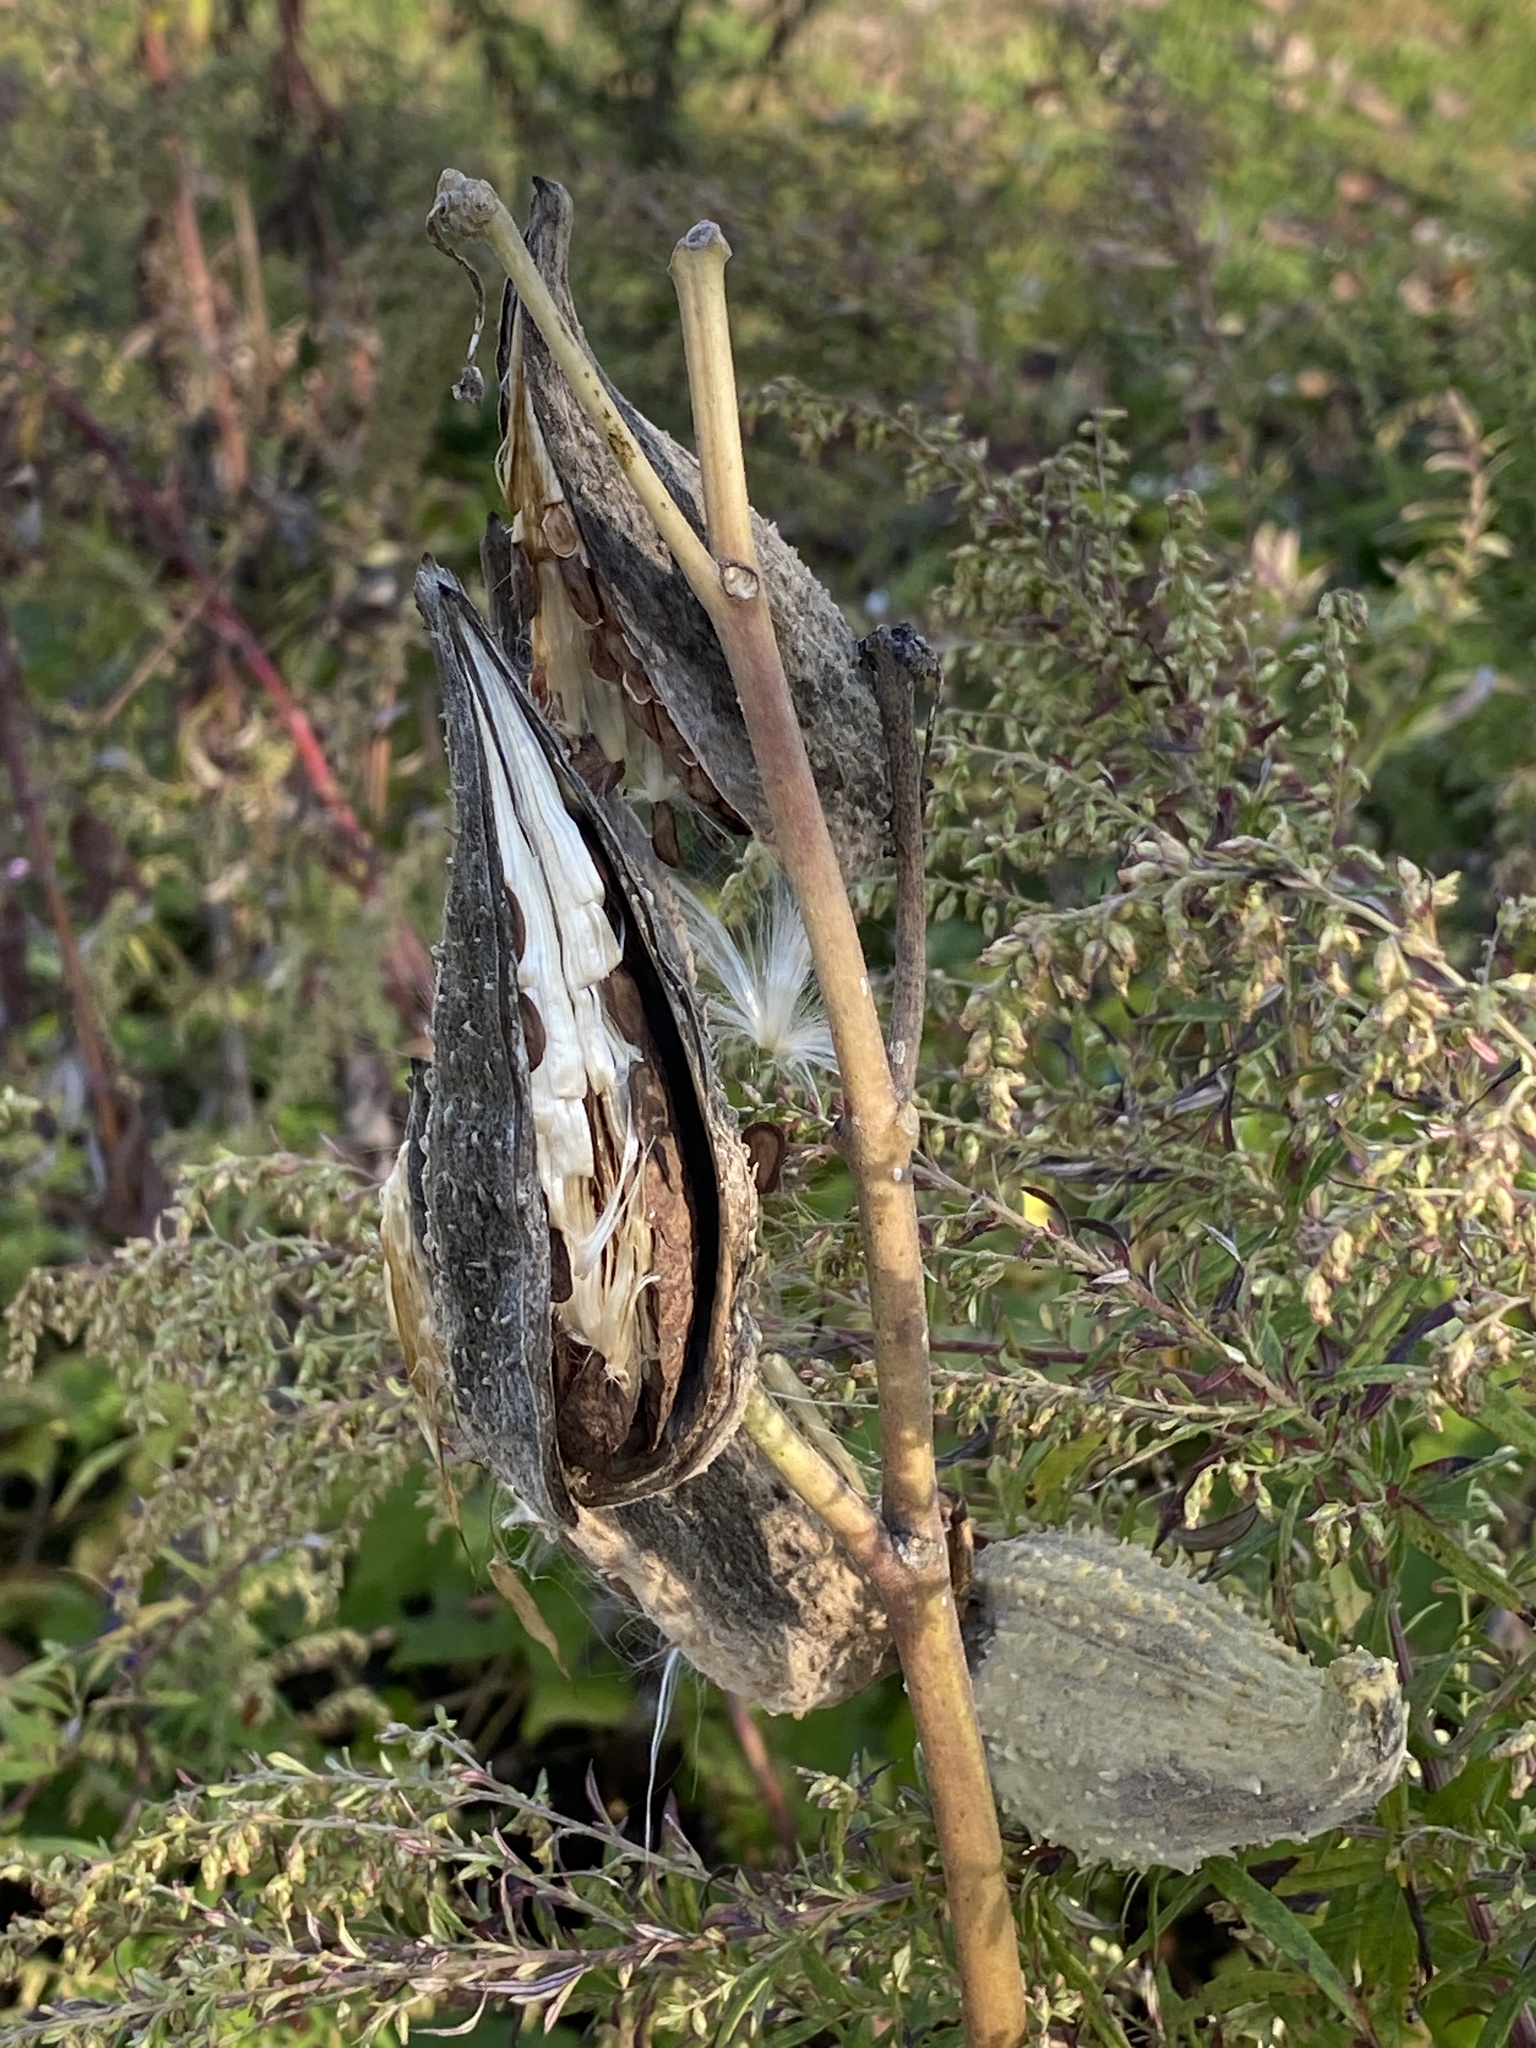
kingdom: Plantae
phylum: Tracheophyta
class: Magnoliopsida
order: Gentianales
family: Apocynaceae
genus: Asclepias
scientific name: Asclepias syriaca
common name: Common milkweed
